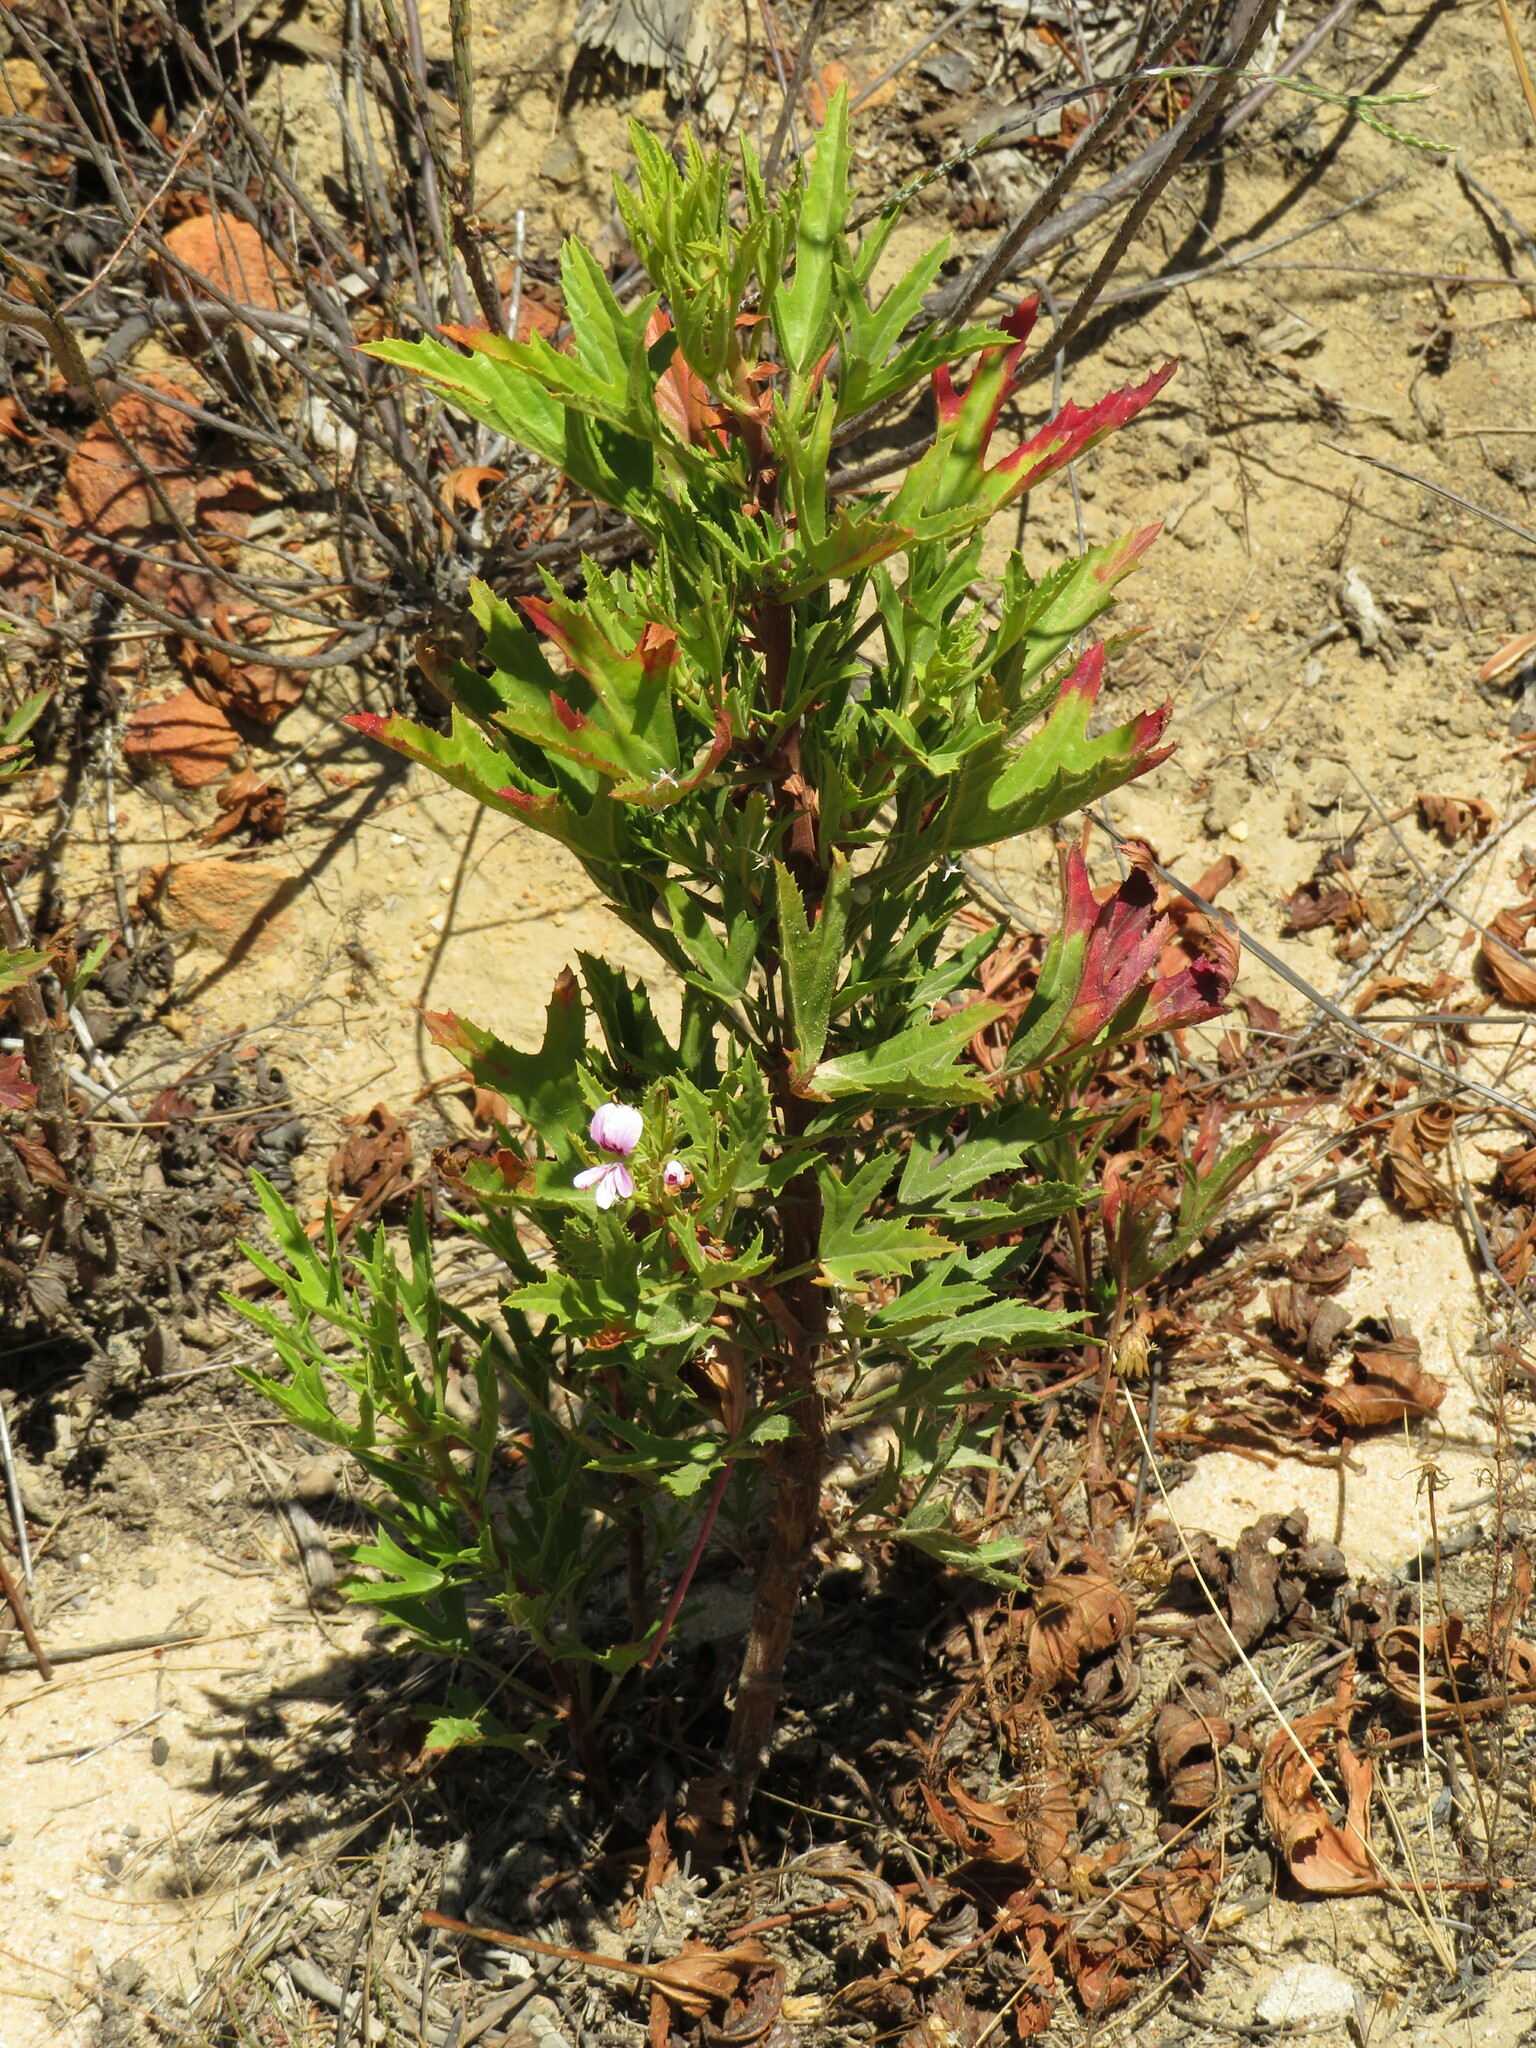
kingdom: Plantae
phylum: Tracheophyta
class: Magnoliopsida
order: Geraniales
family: Geraniaceae
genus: Pelargonium
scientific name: Pelargonium scabrum
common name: Apricot geranium
